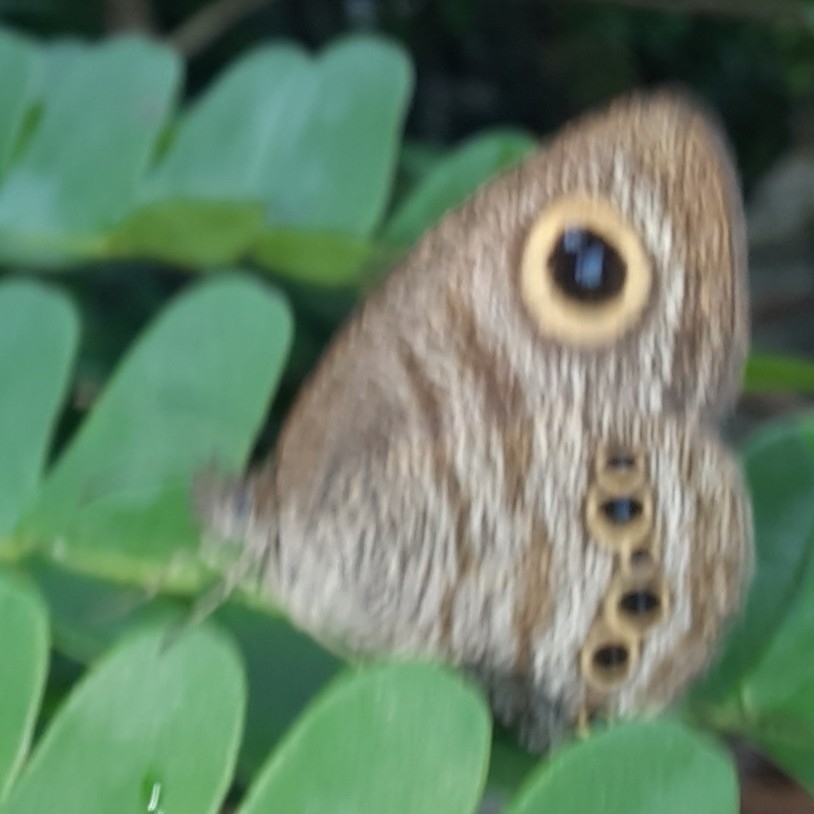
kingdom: Animalia
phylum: Arthropoda
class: Insecta
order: Lepidoptera
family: Nymphalidae
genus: Ypthima
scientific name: Ypthima baldus
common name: Common five-ring
